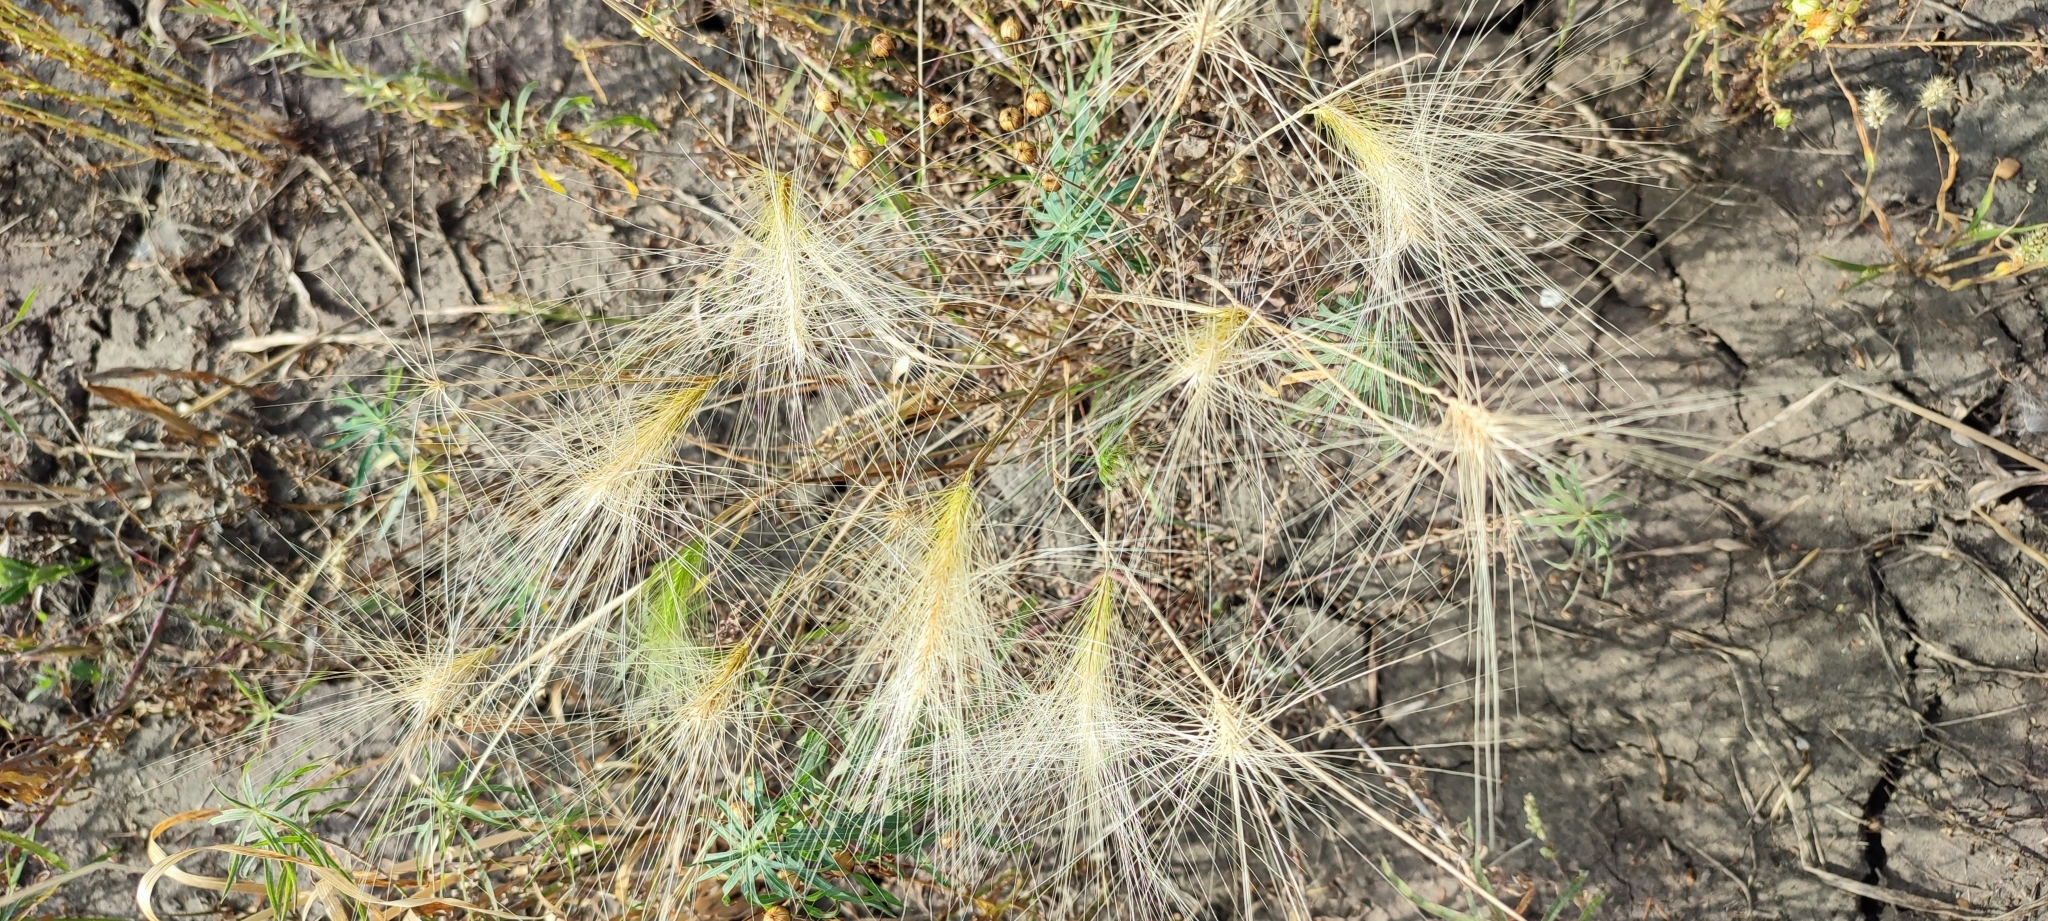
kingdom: Plantae
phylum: Tracheophyta
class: Liliopsida
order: Poales
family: Poaceae
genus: Hordeum
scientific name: Hordeum jubatum
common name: Foxtail barley
